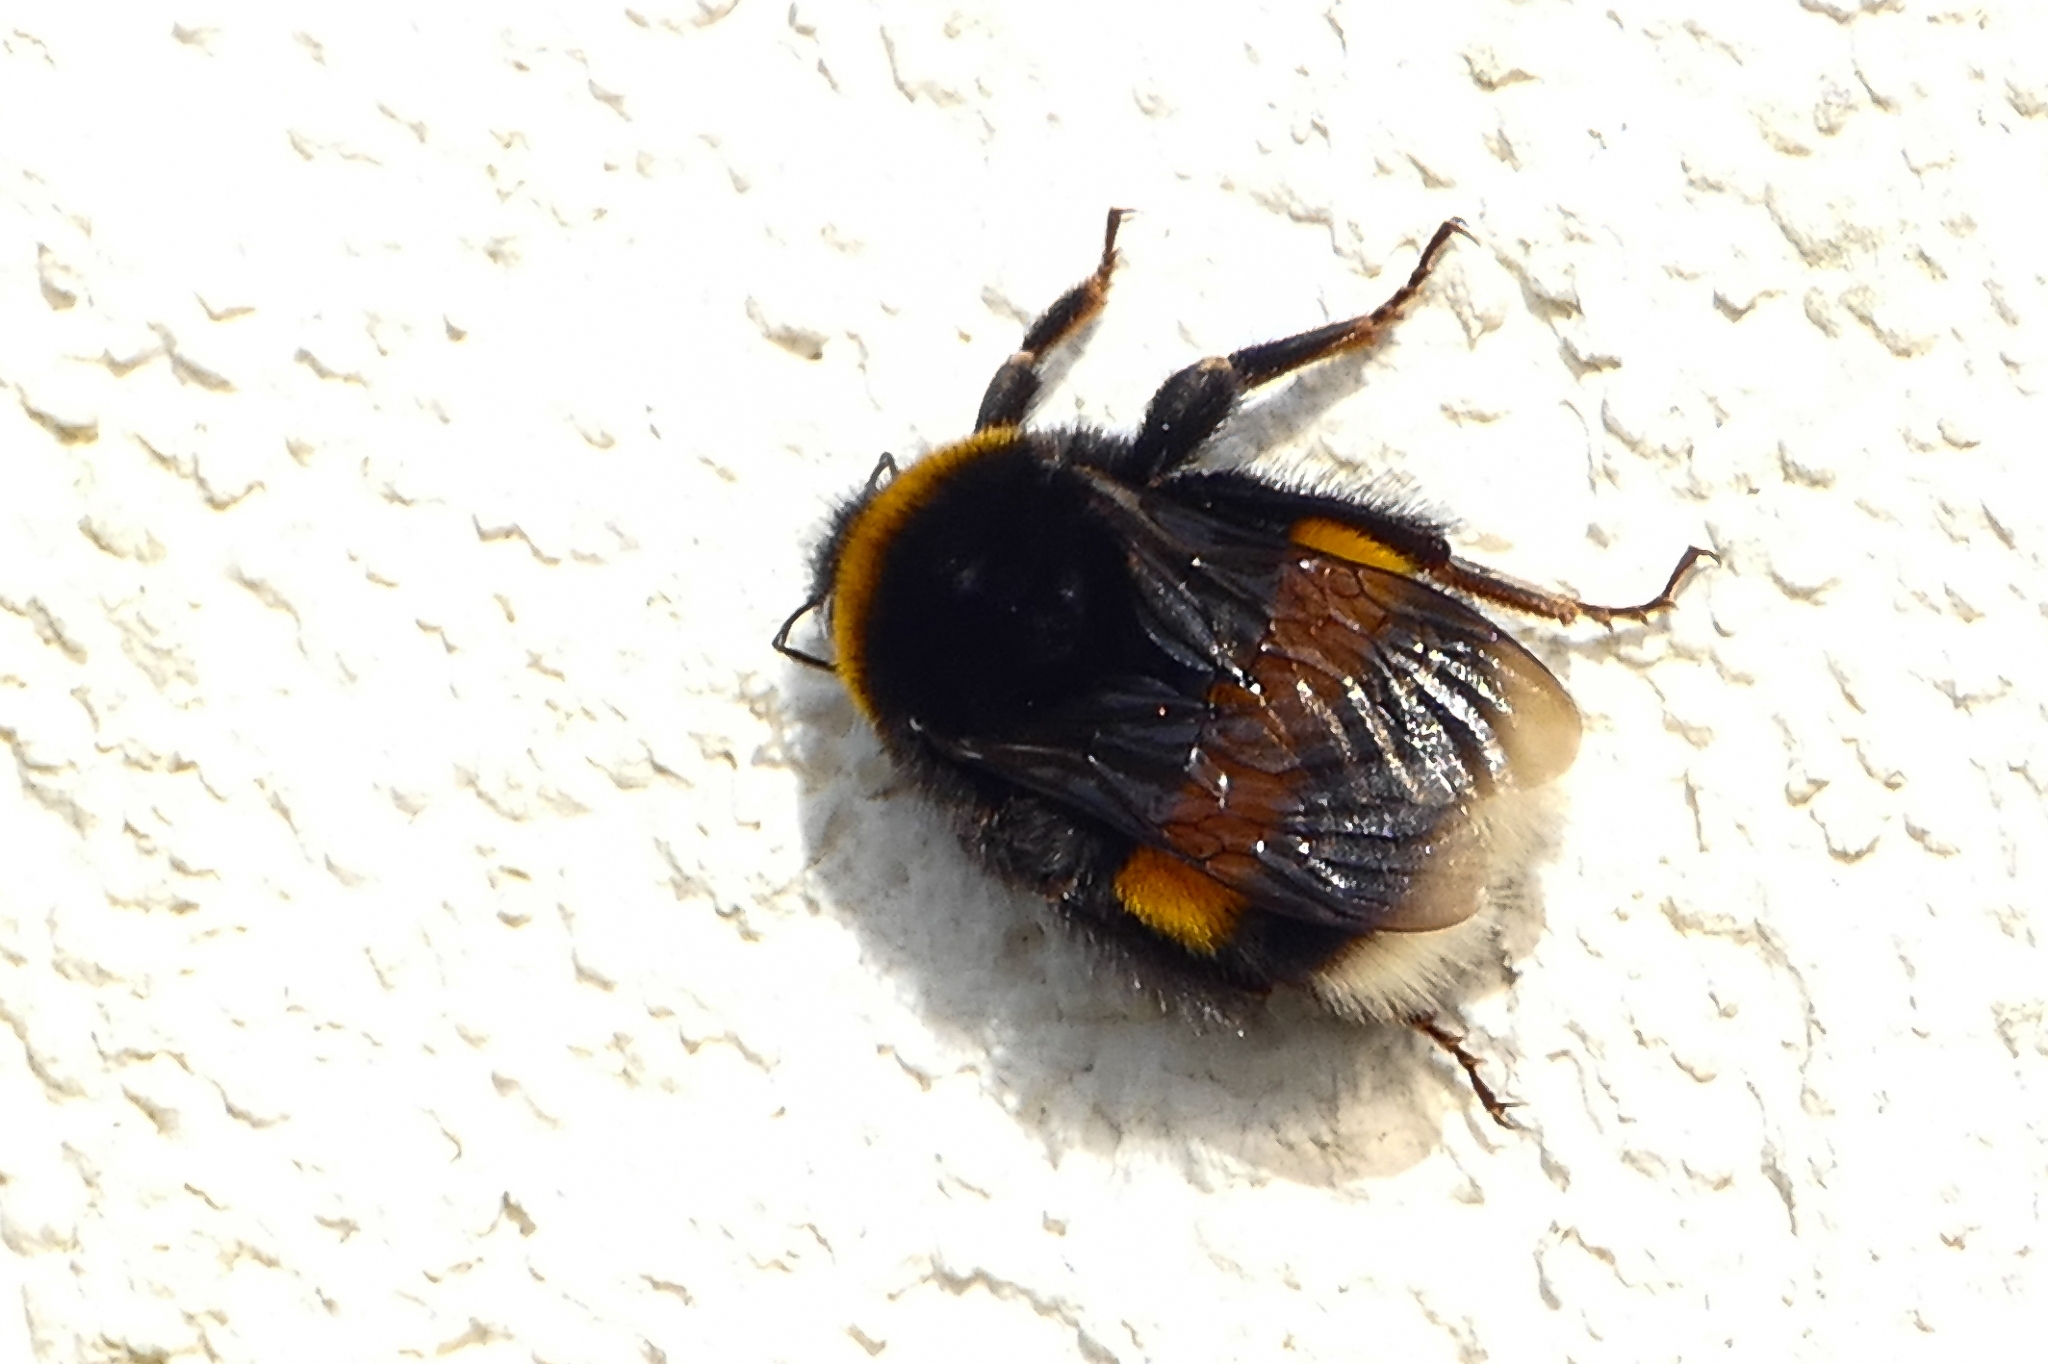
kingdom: Animalia
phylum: Arthropoda
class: Insecta
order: Hymenoptera
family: Apidae
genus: Bombus
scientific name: Bombus terrestris
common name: Buff-tailed bumblebee
